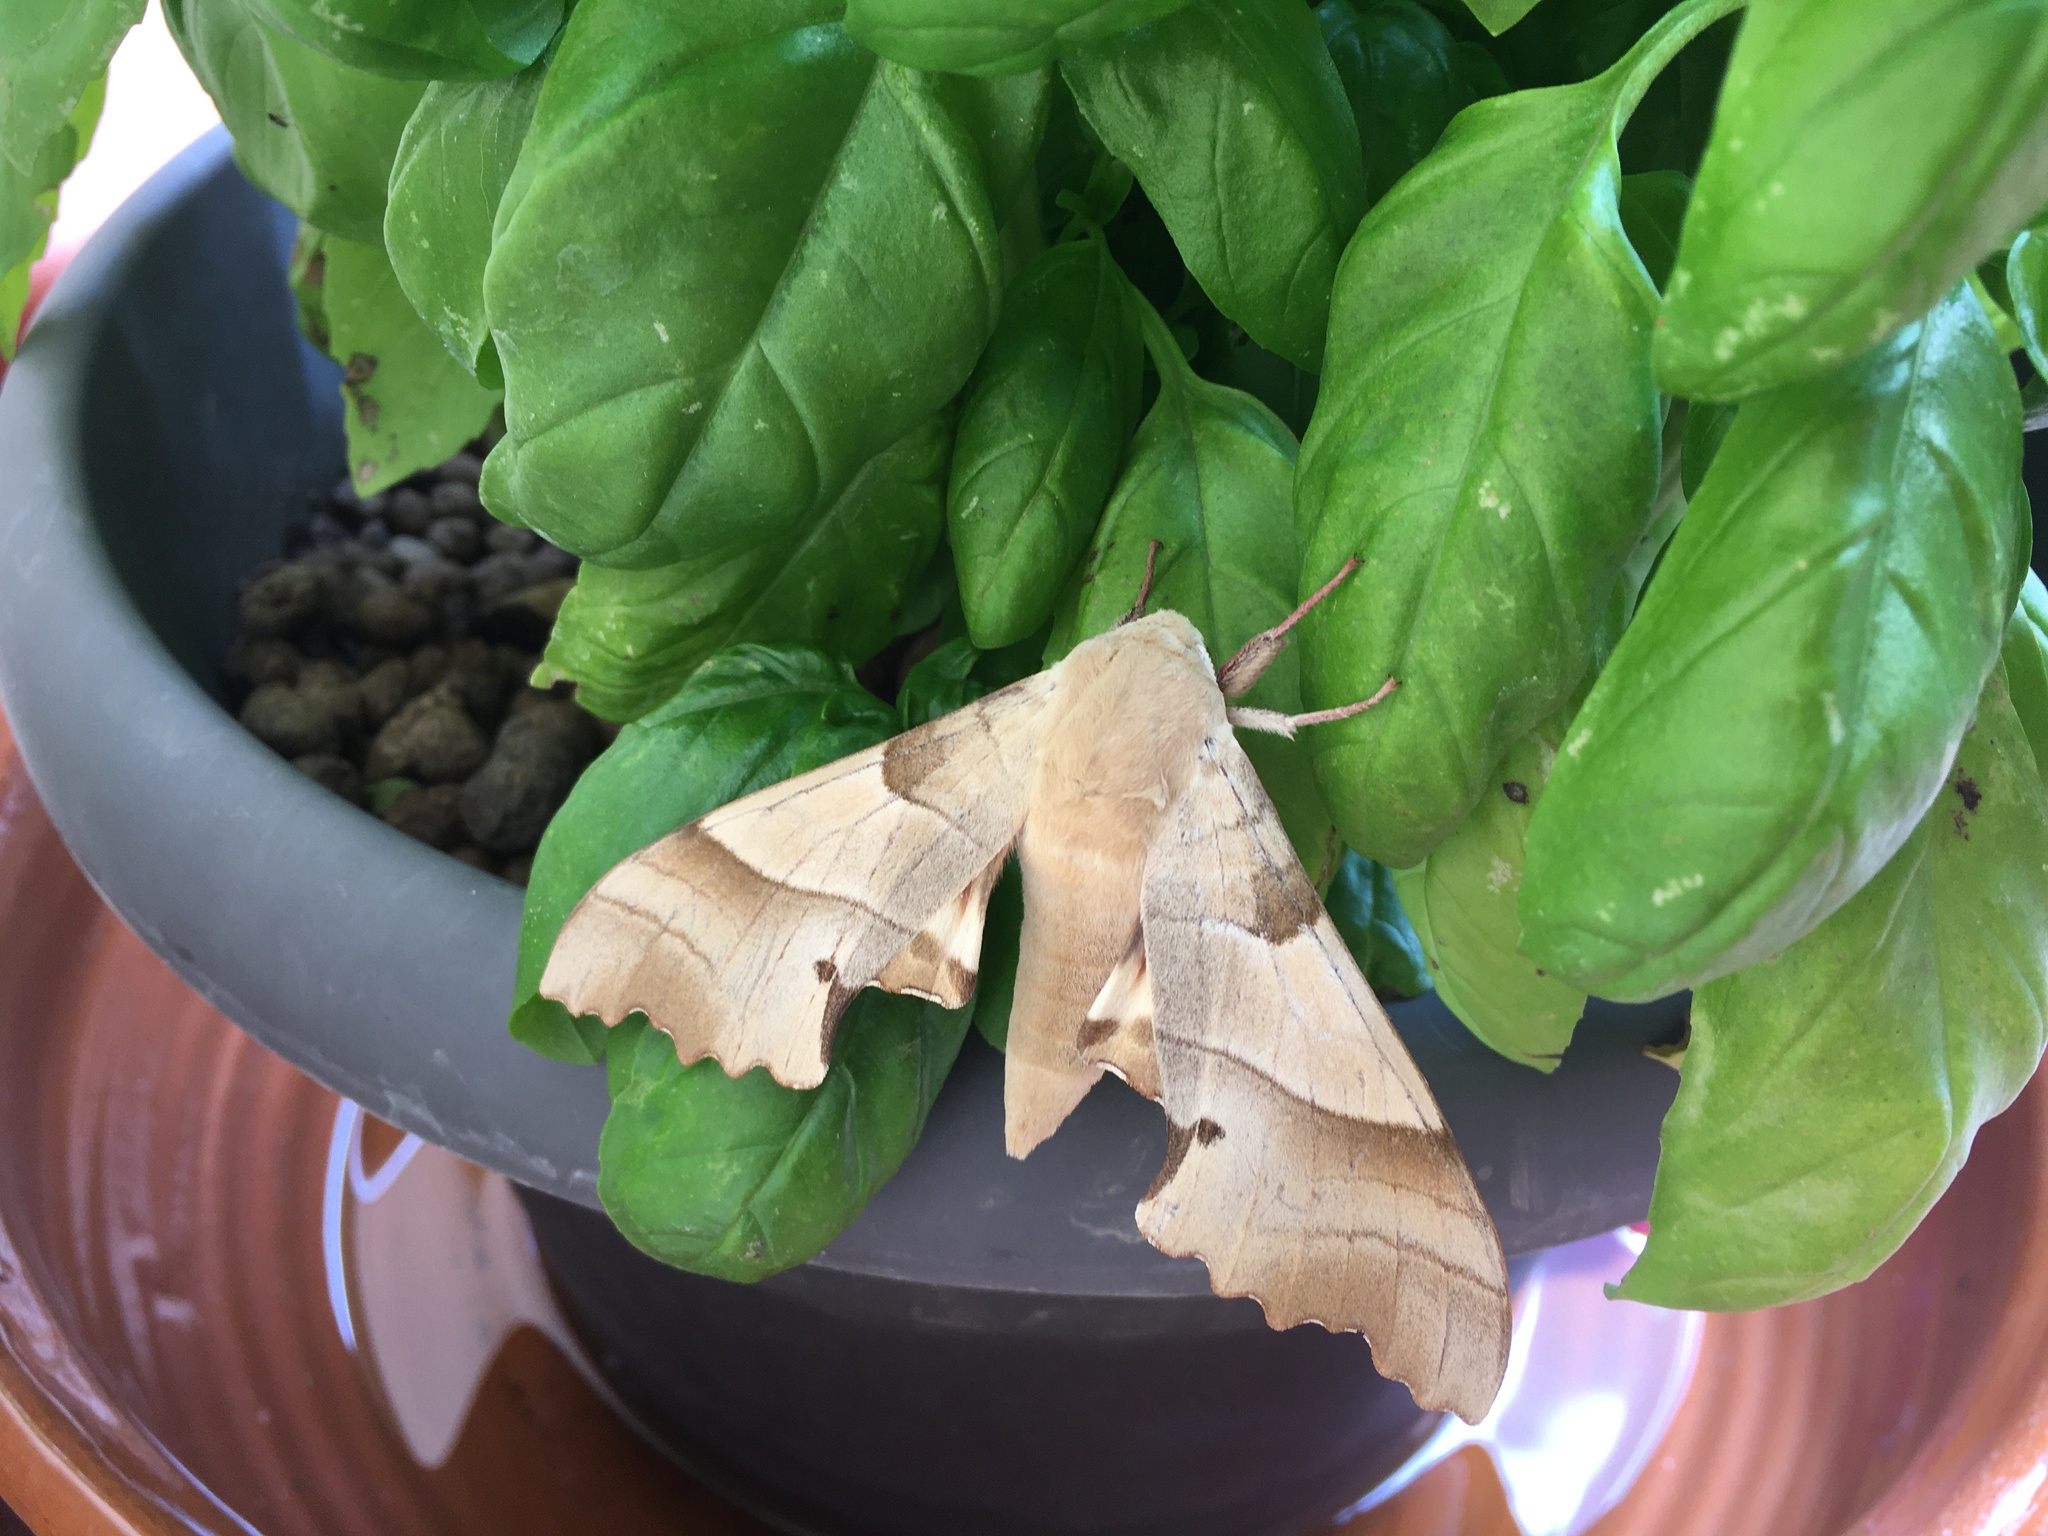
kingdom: Animalia
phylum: Arthropoda
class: Insecta
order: Lepidoptera
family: Sphingidae
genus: Marumba
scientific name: Marumba quercus
